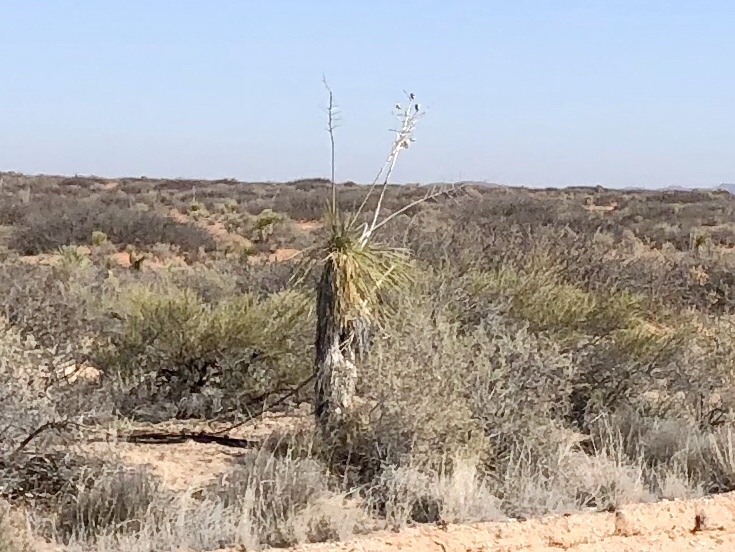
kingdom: Plantae
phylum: Tracheophyta
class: Liliopsida
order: Asparagales
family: Asparagaceae
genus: Yucca
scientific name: Yucca elata
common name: Palmella
